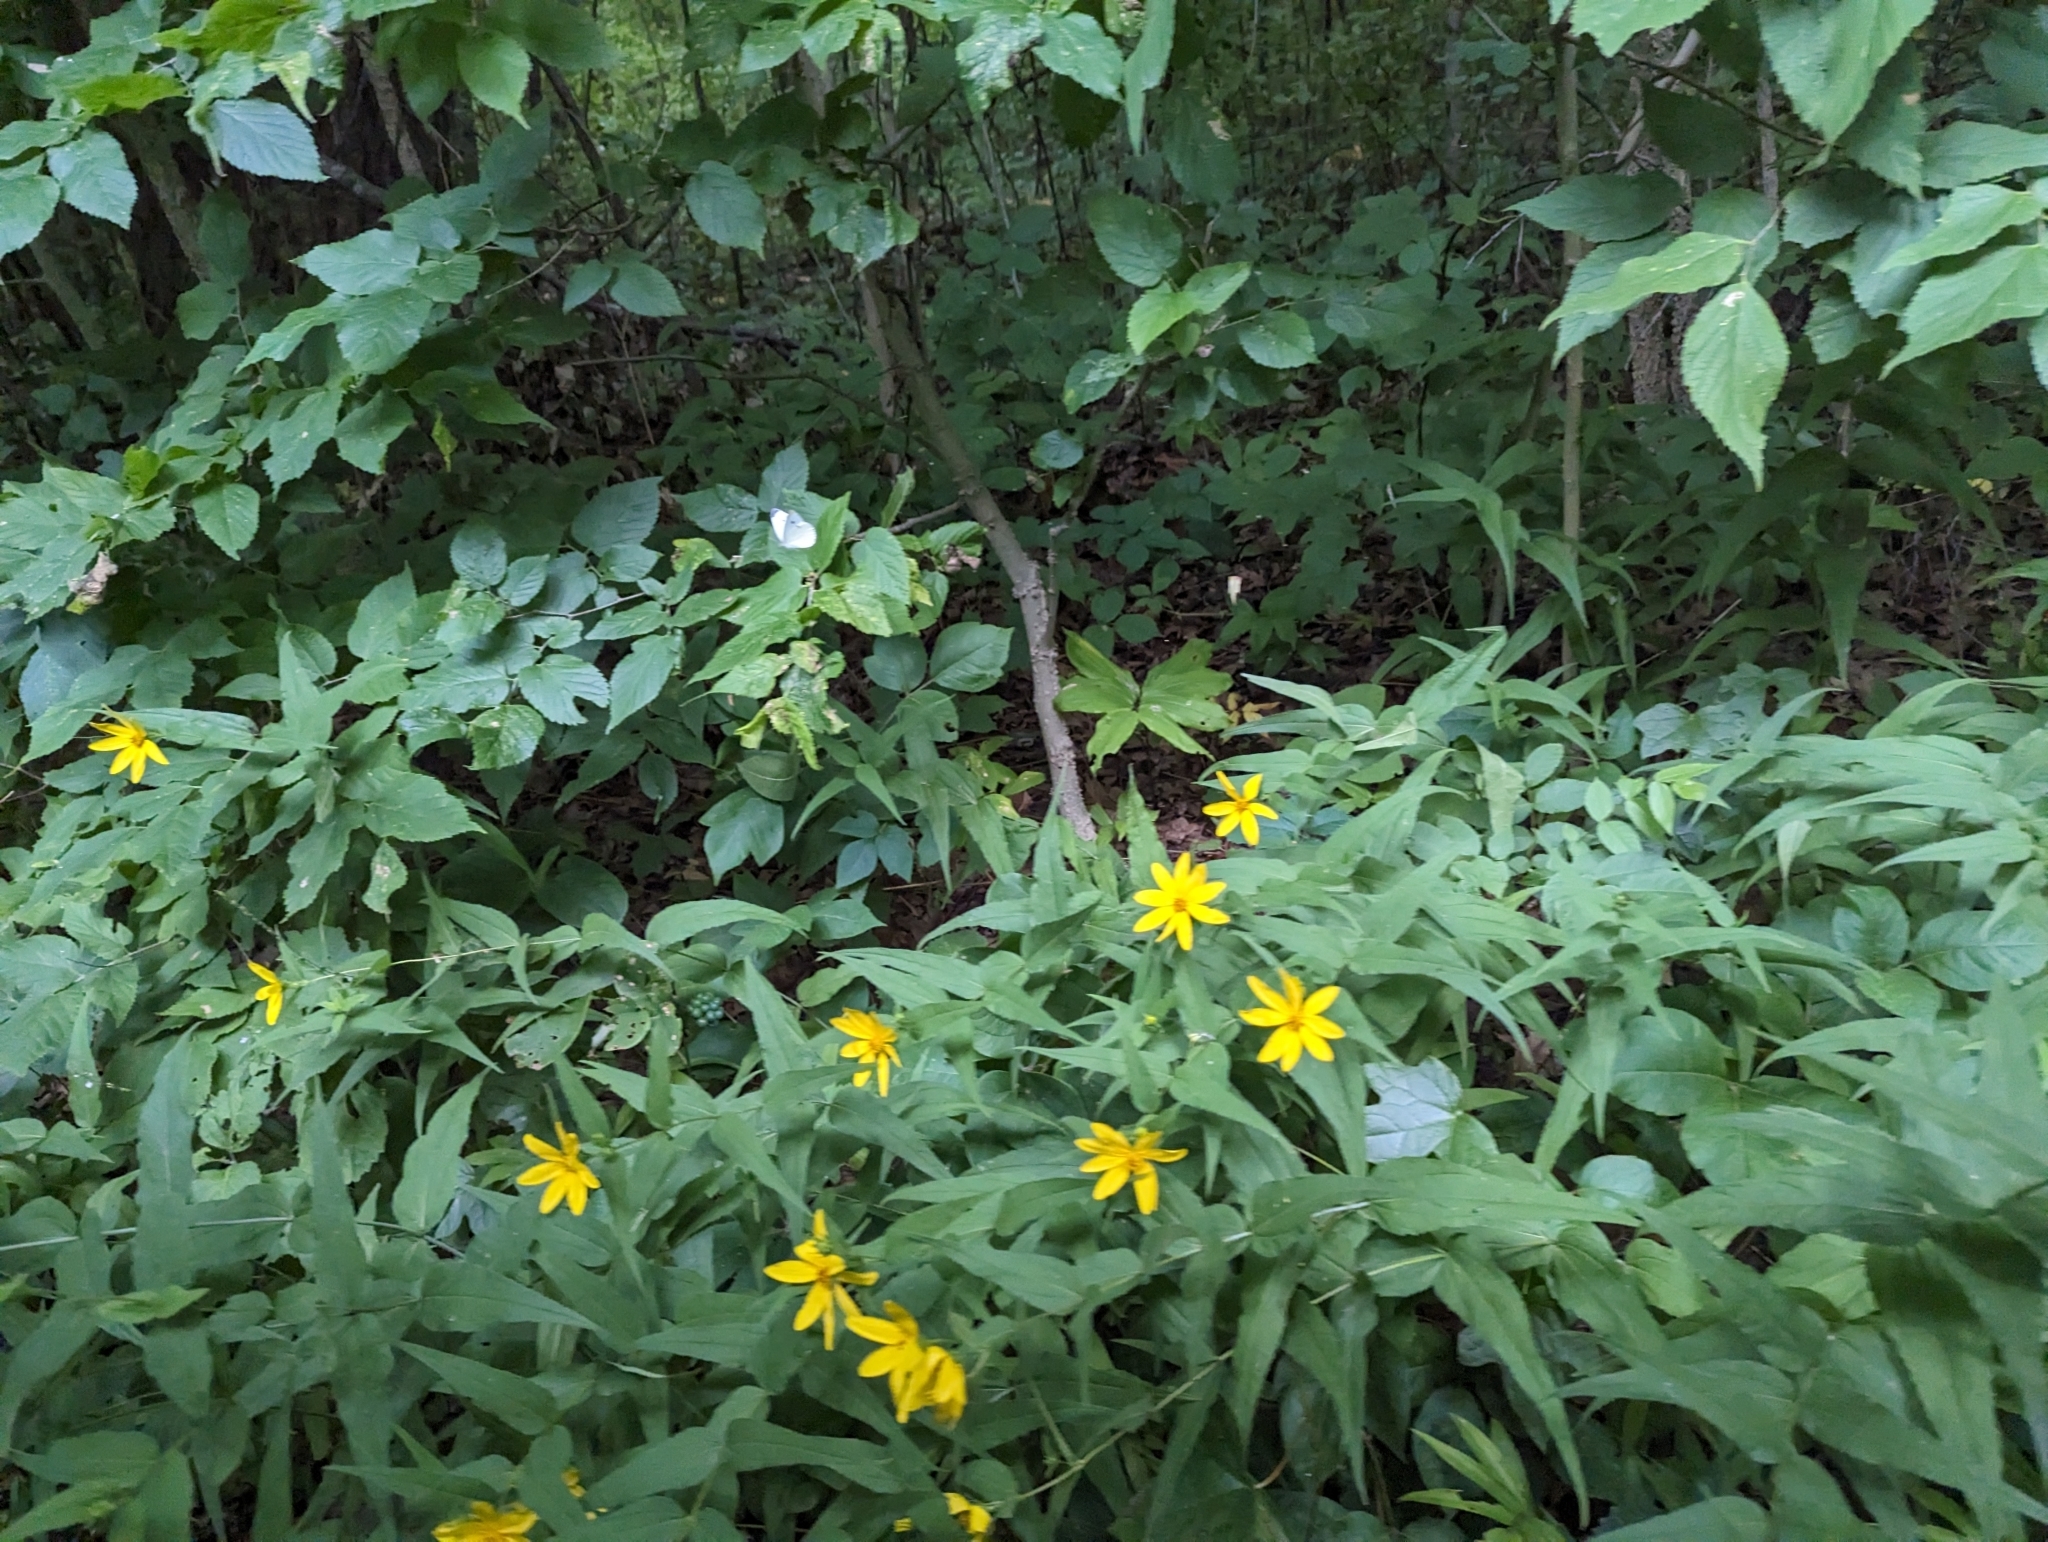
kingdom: Plantae
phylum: Tracheophyta
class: Magnoliopsida
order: Asterales
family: Asteraceae
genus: Helianthus
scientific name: Helianthus divaricatus
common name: Divergent sunflower
